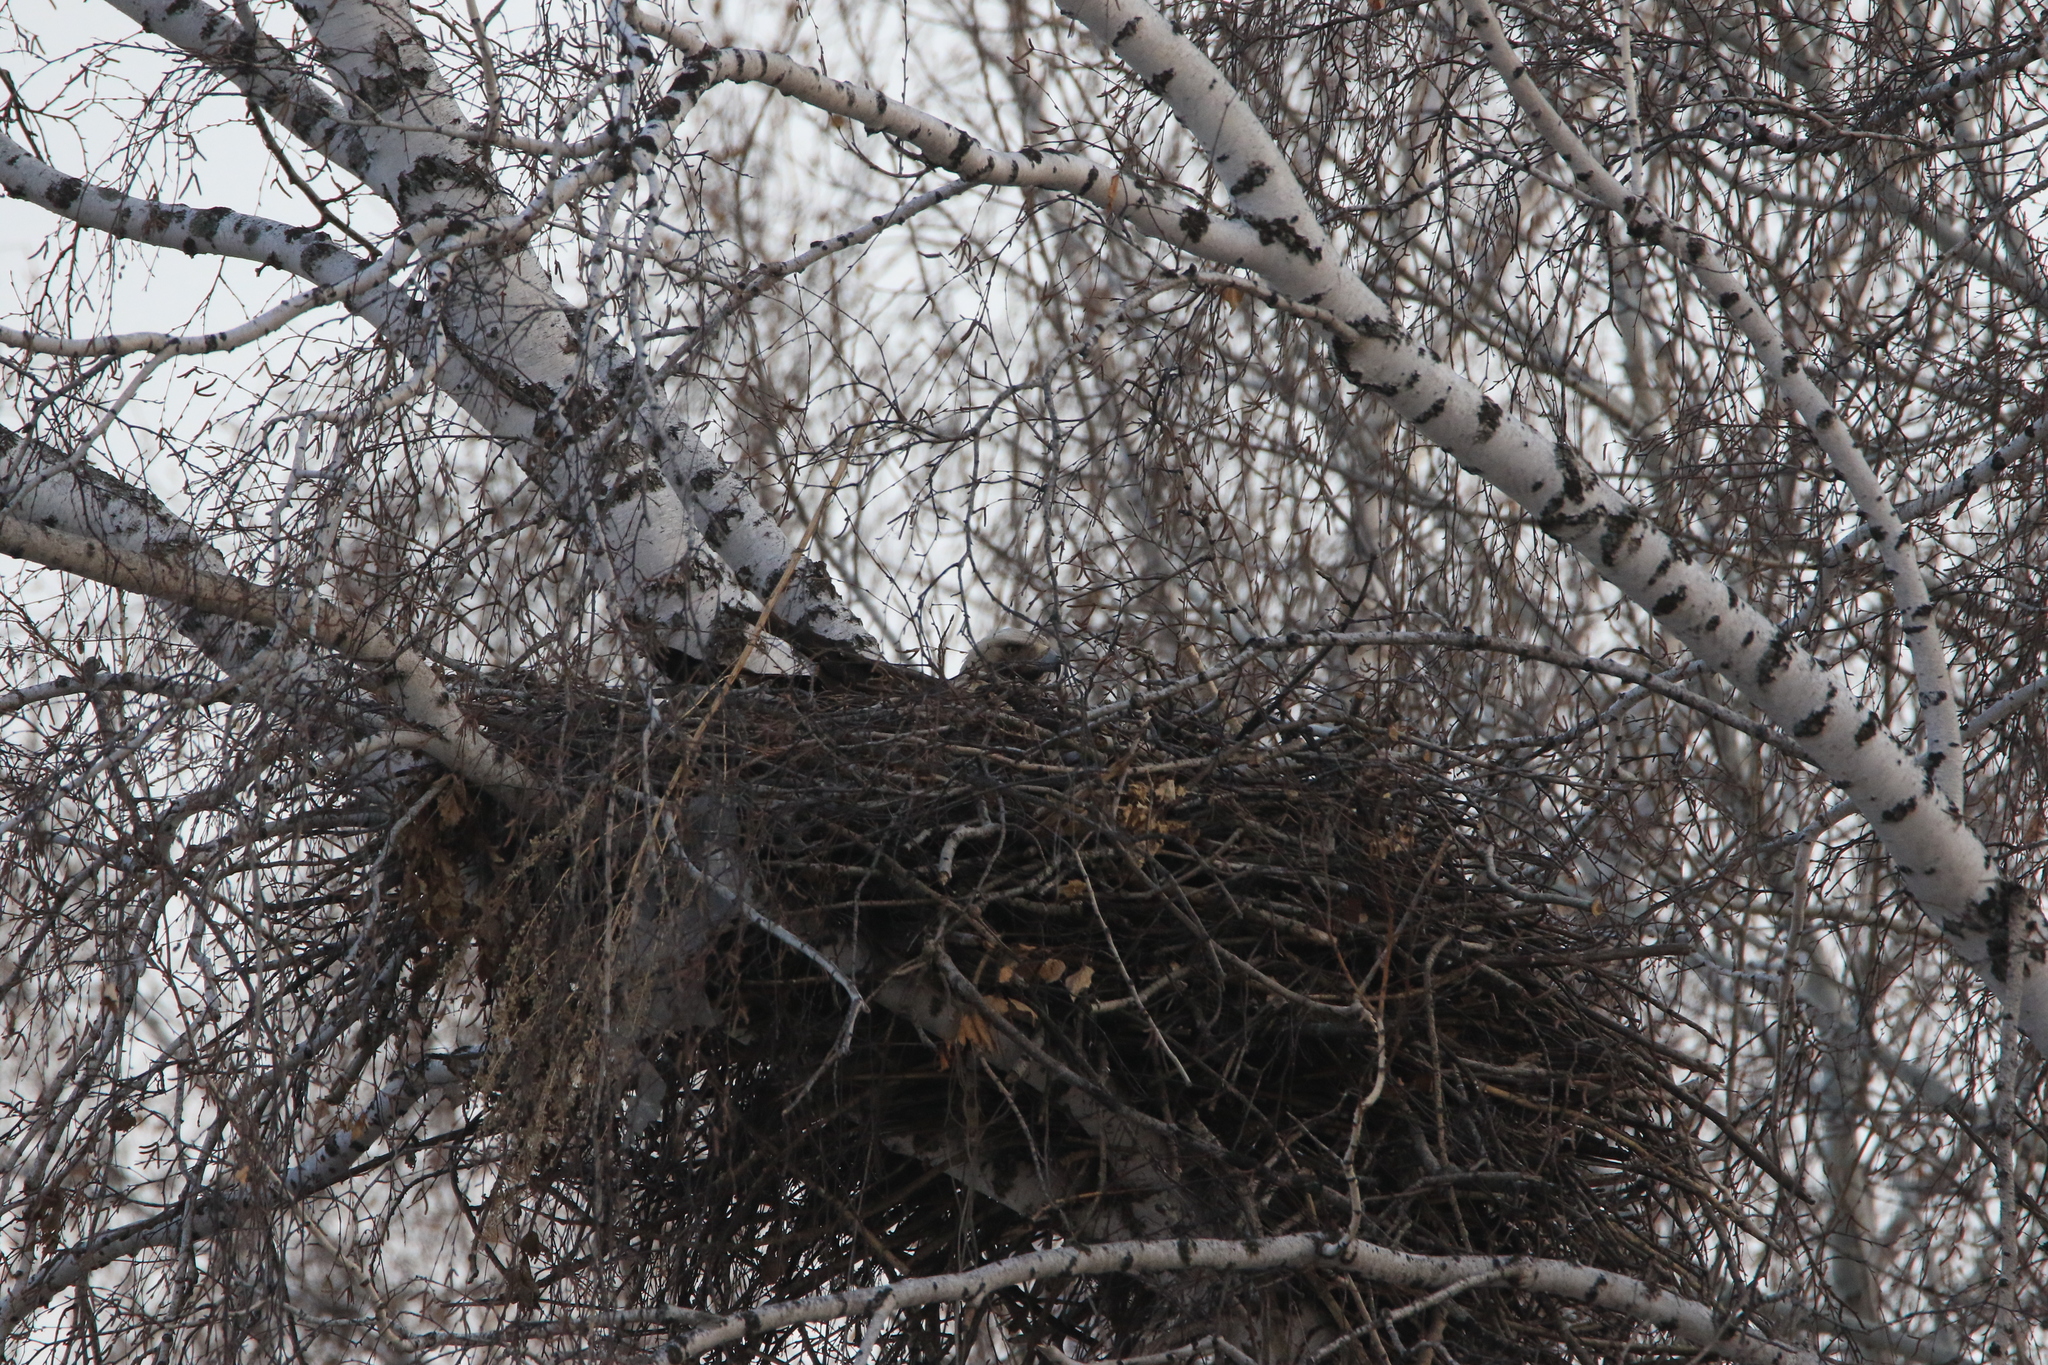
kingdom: Animalia
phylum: Chordata
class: Aves
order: Accipitriformes
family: Accipitridae
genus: Aquila
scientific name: Aquila heliaca
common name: Eastern imperial eagle
